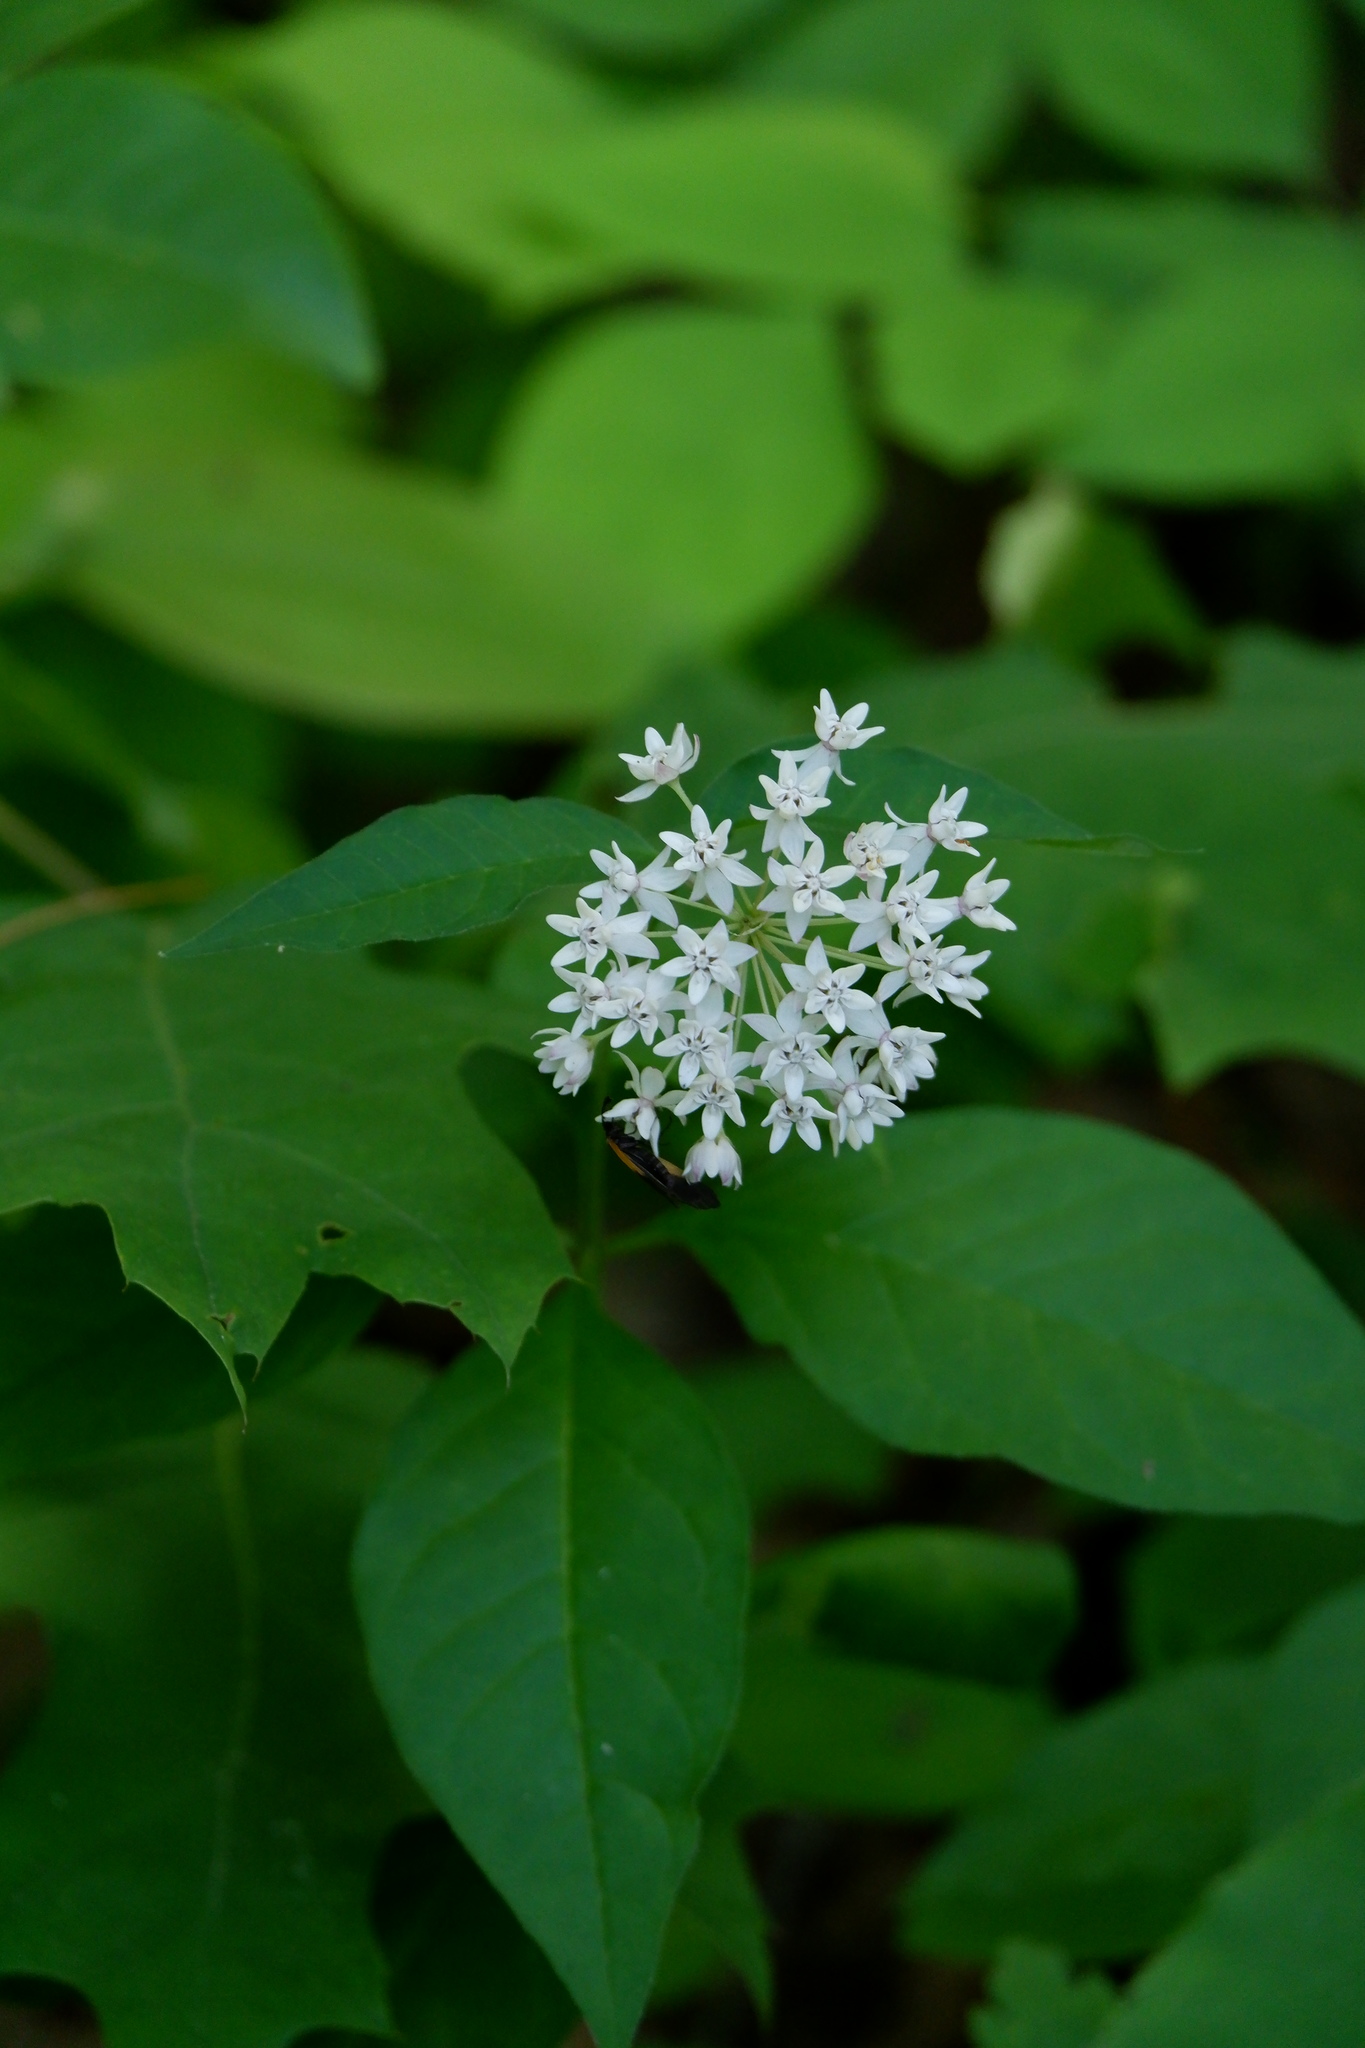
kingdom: Plantae
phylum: Tracheophyta
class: Magnoliopsida
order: Gentianales
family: Apocynaceae
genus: Asclepias
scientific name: Asclepias quadrifolia
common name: Whorled milkweed
